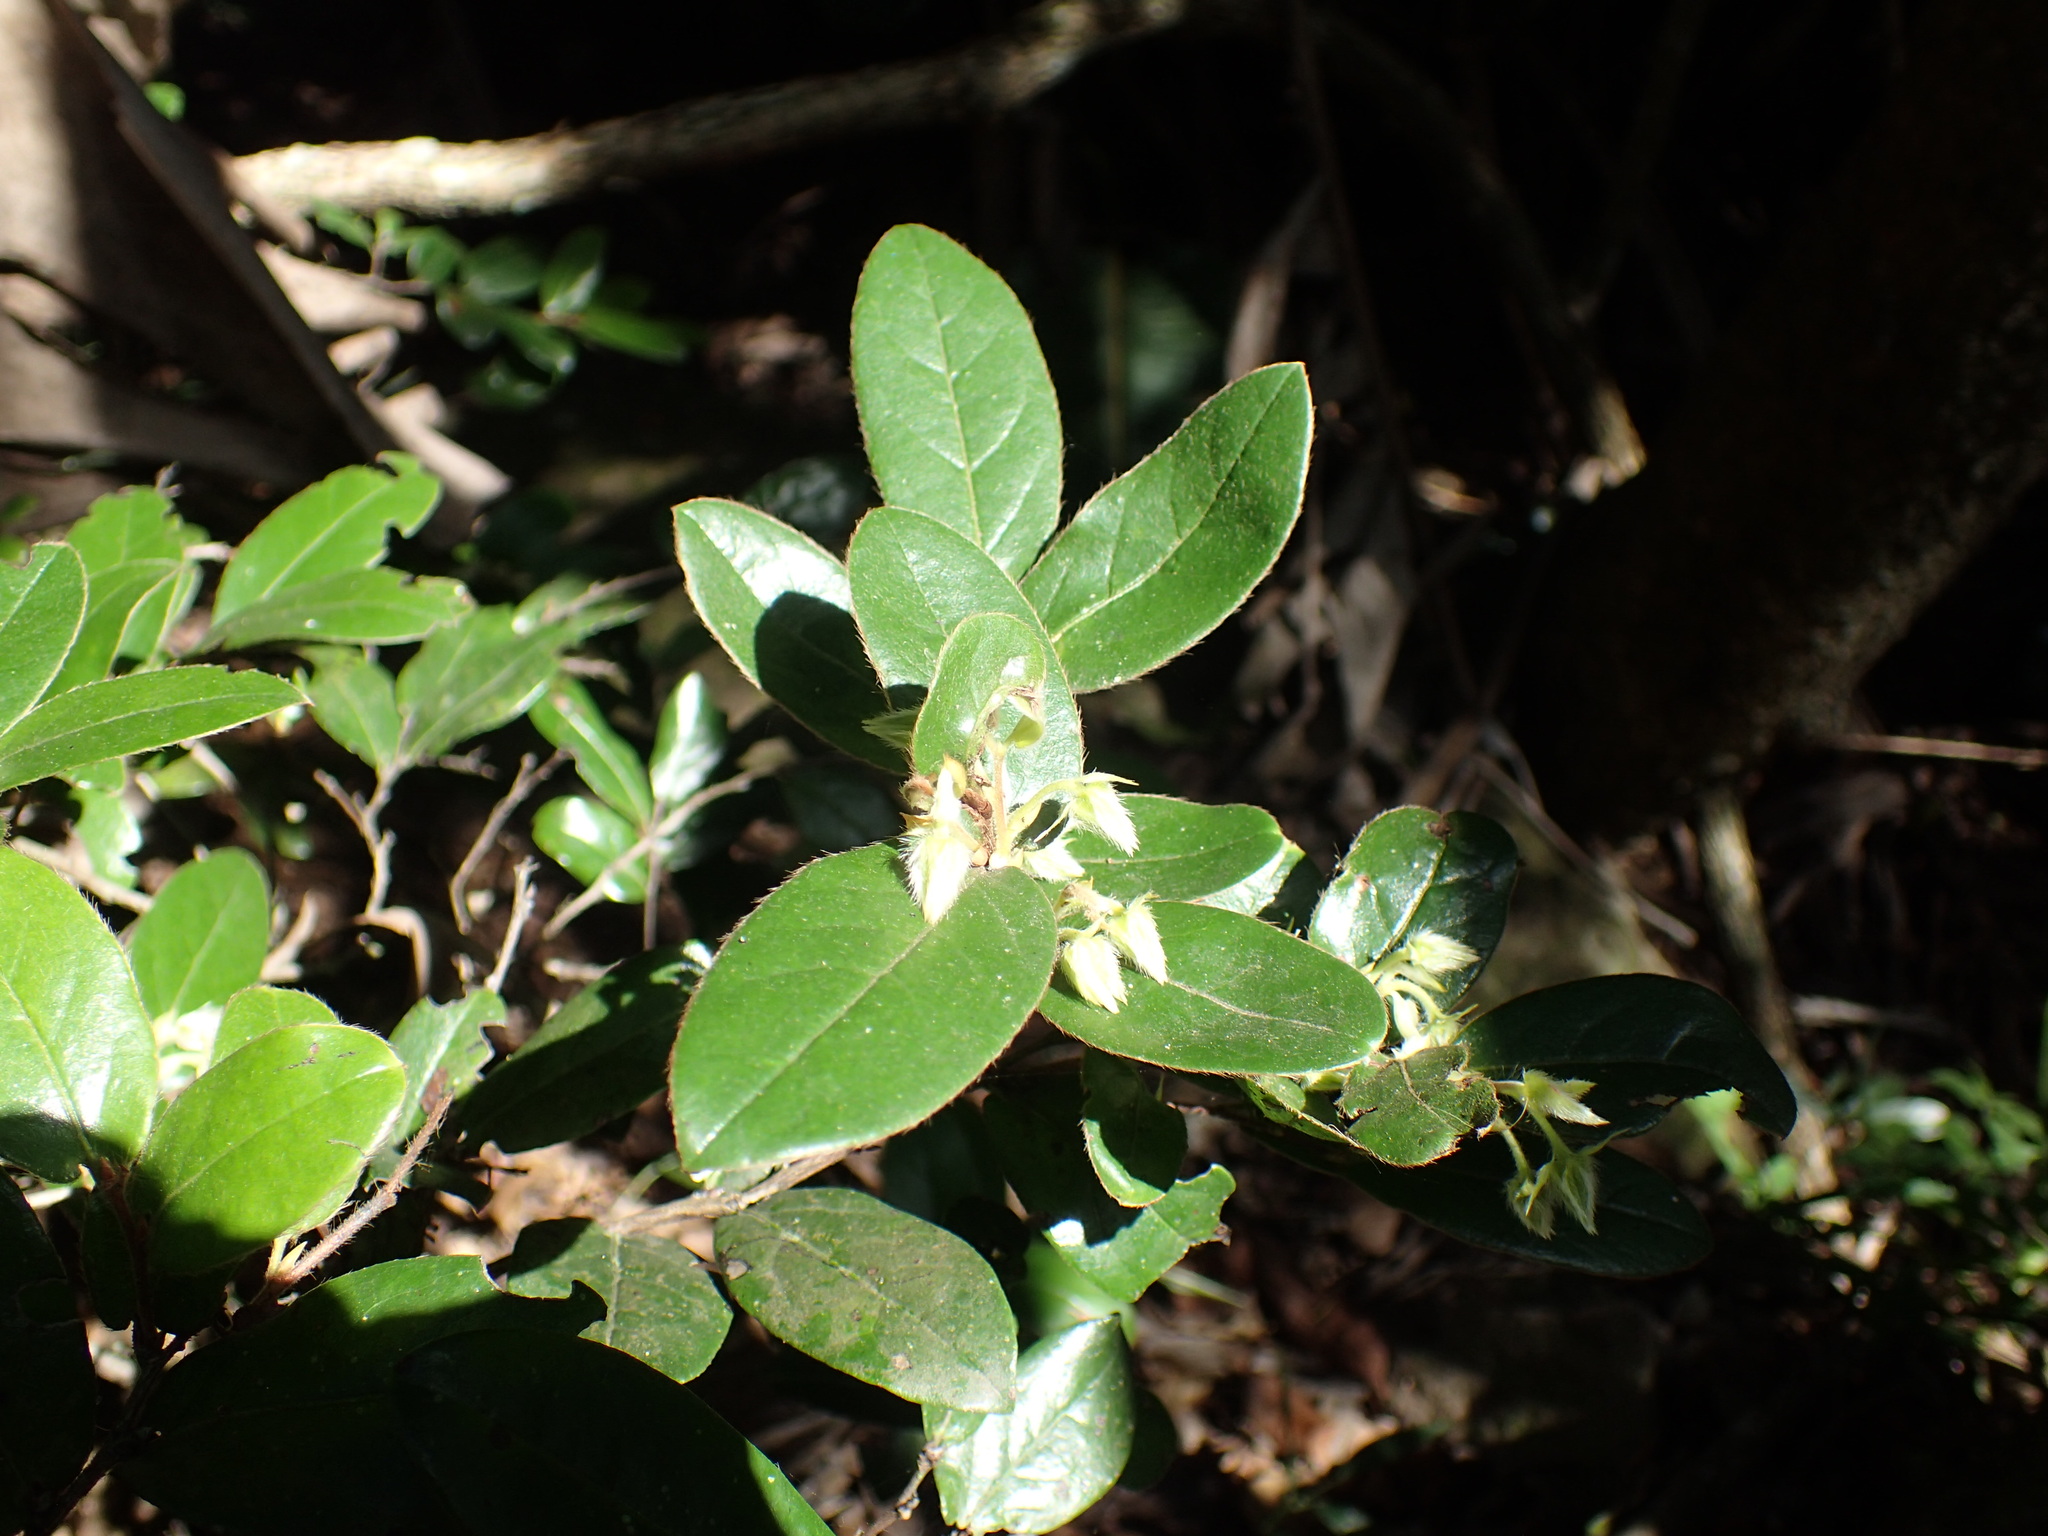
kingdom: Plantae
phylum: Tracheophyta
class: Magnoliopsida
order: Ericales
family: Ebenaceae
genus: Diospyros
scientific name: Diospyros scabrida
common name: Coastal bladder-nut
